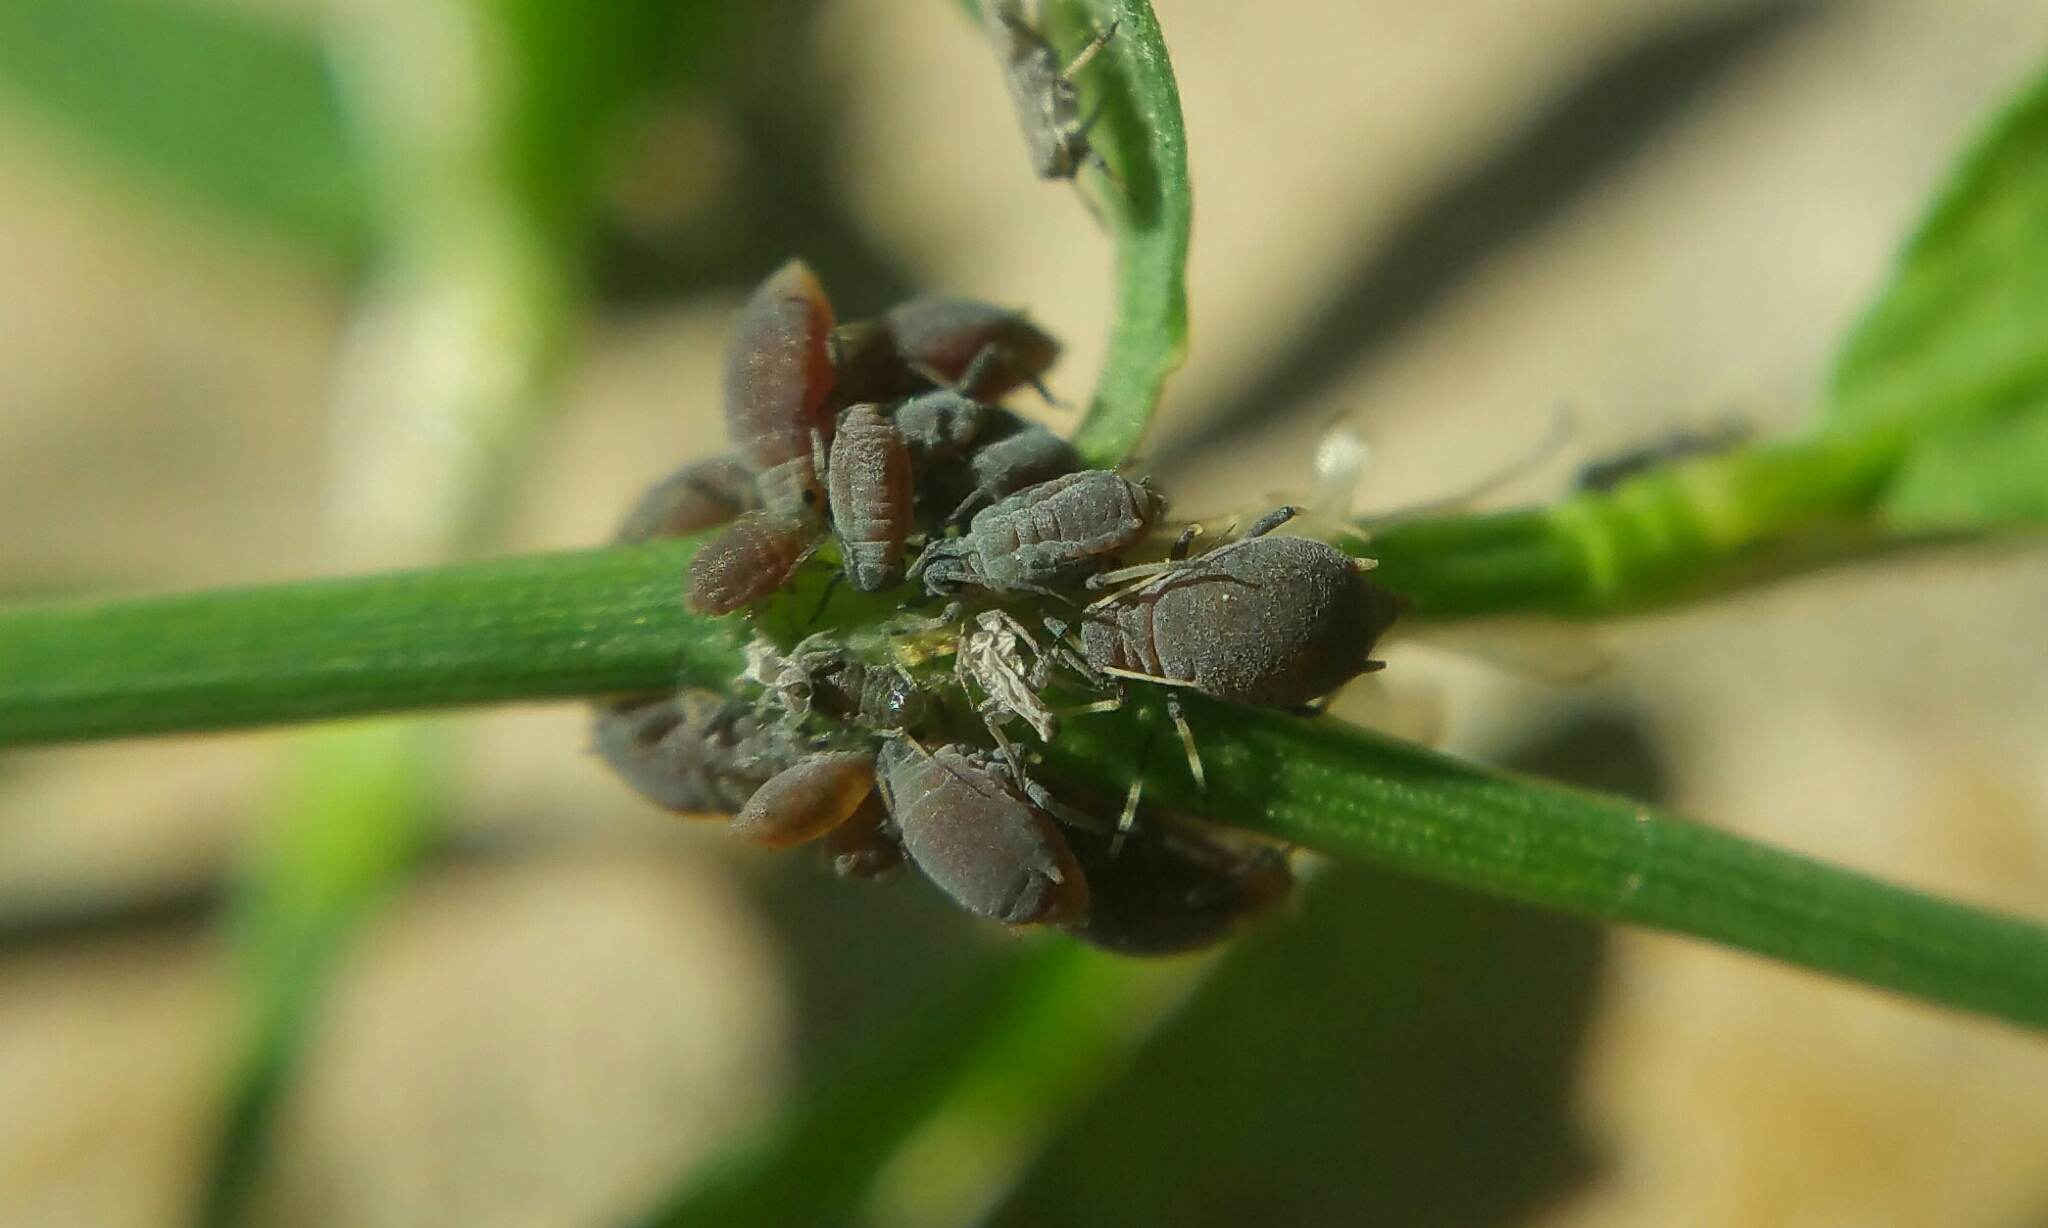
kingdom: Animalia
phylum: Arthropoda
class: Insecta
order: Hemiptera
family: Aphididae
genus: Aphis
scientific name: Aphis polygonata
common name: Aphid
